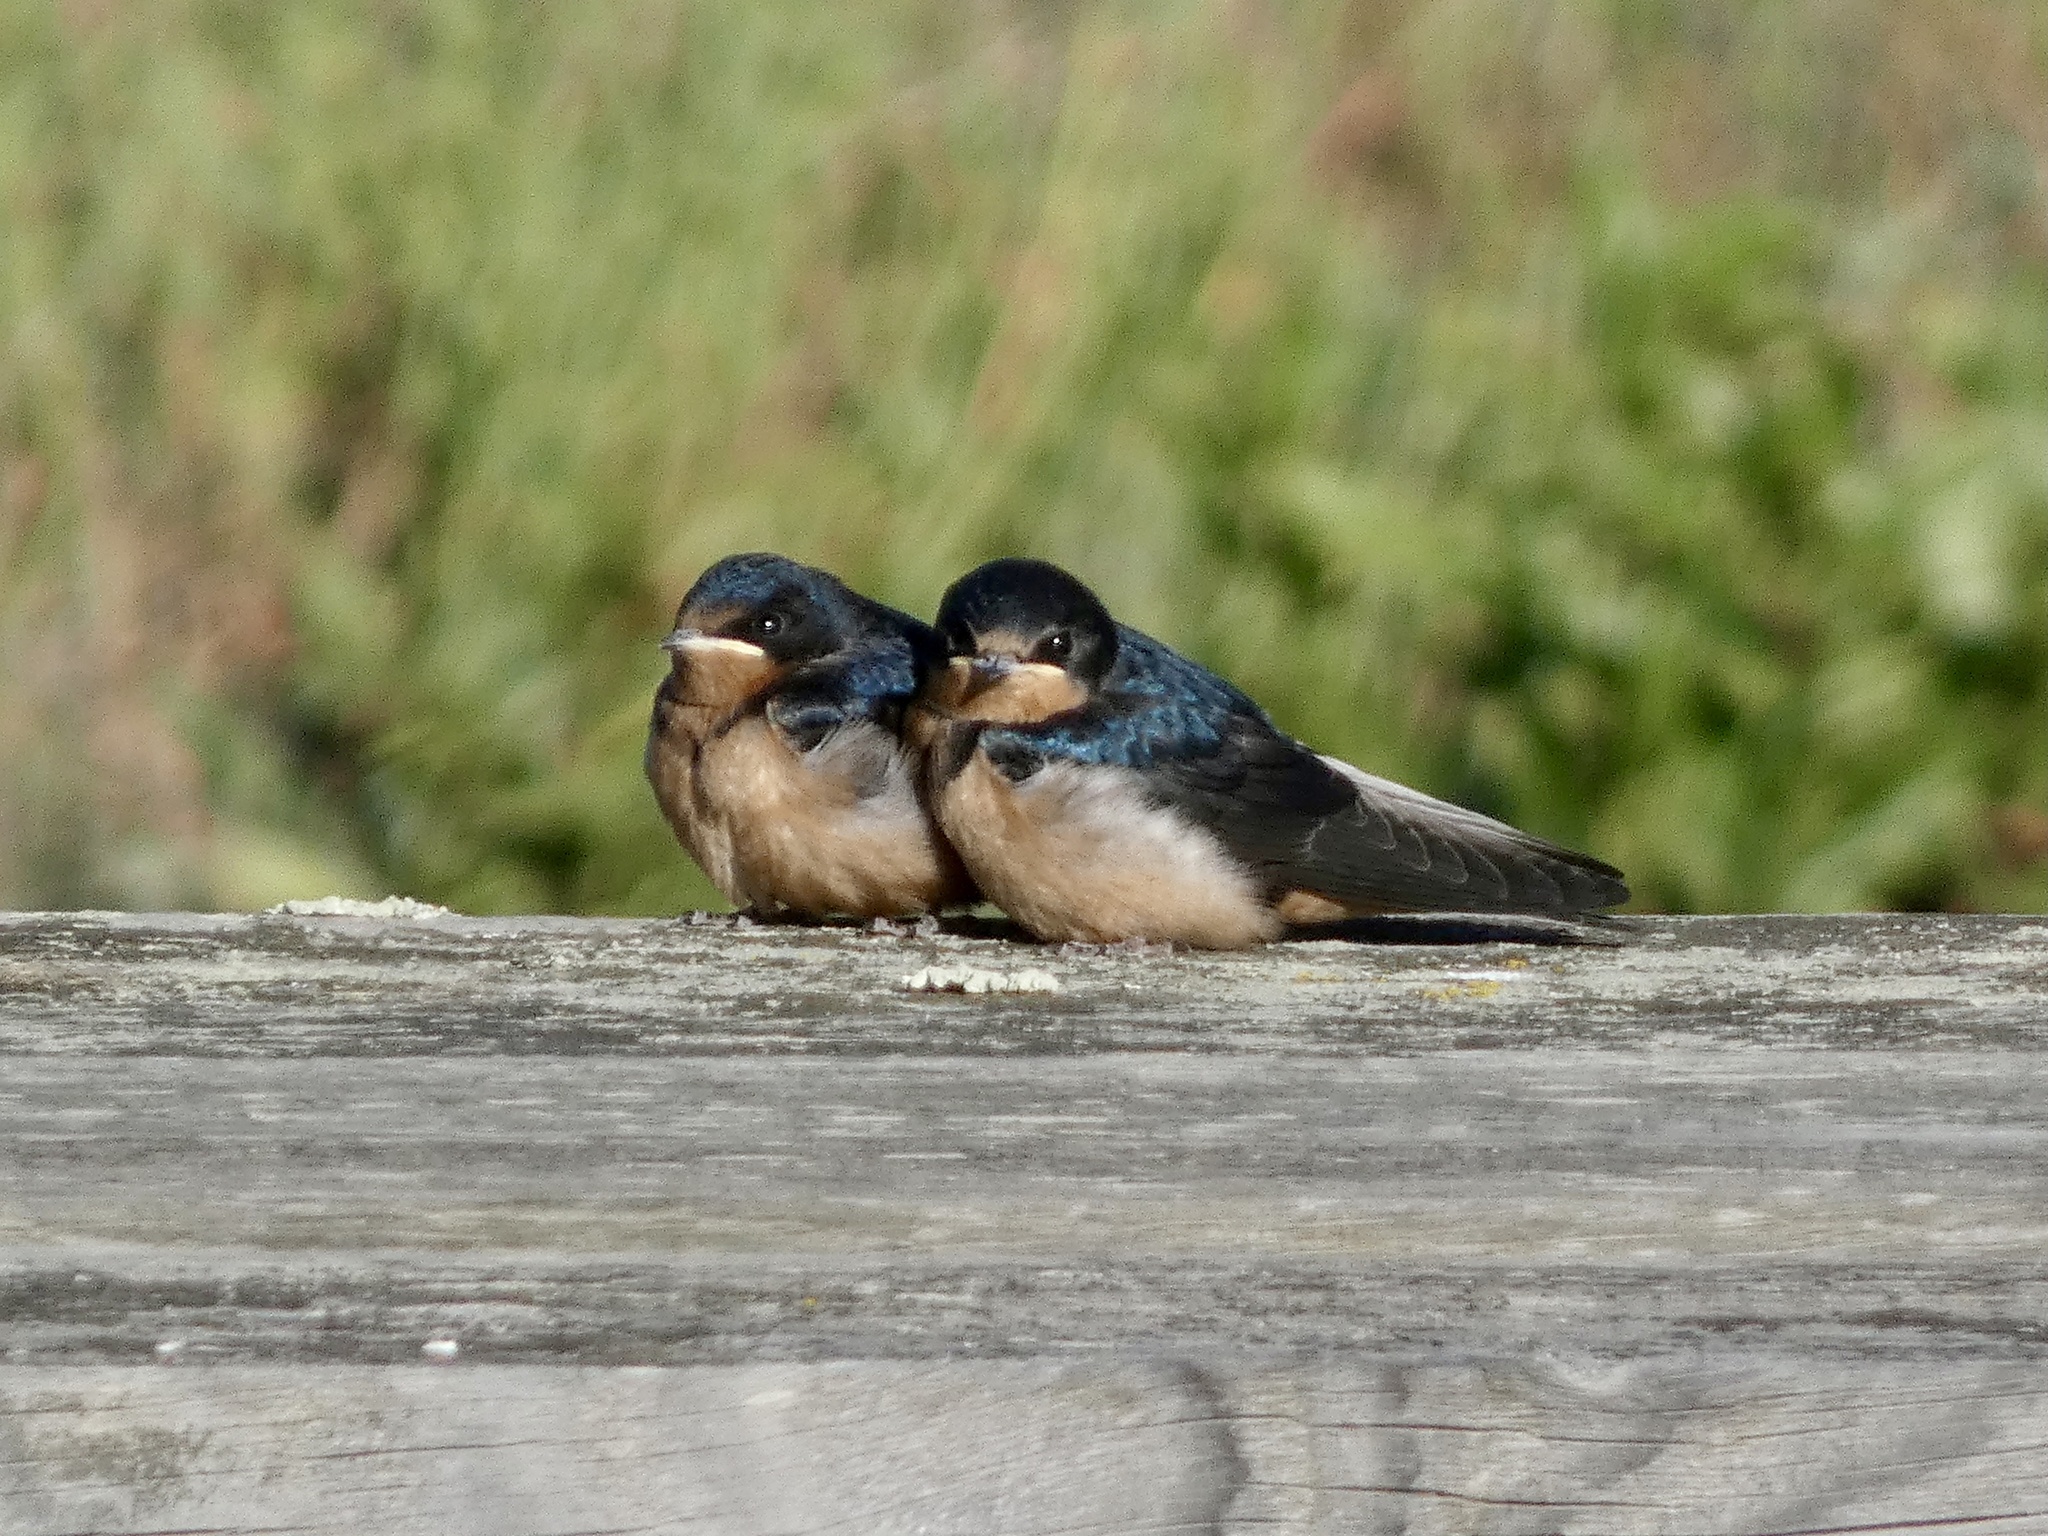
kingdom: Animalia
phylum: Chordata
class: Aves
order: Passeriformes
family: Hirundinidae
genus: Hirundo
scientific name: Hirundo rustica
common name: Barn swallow
